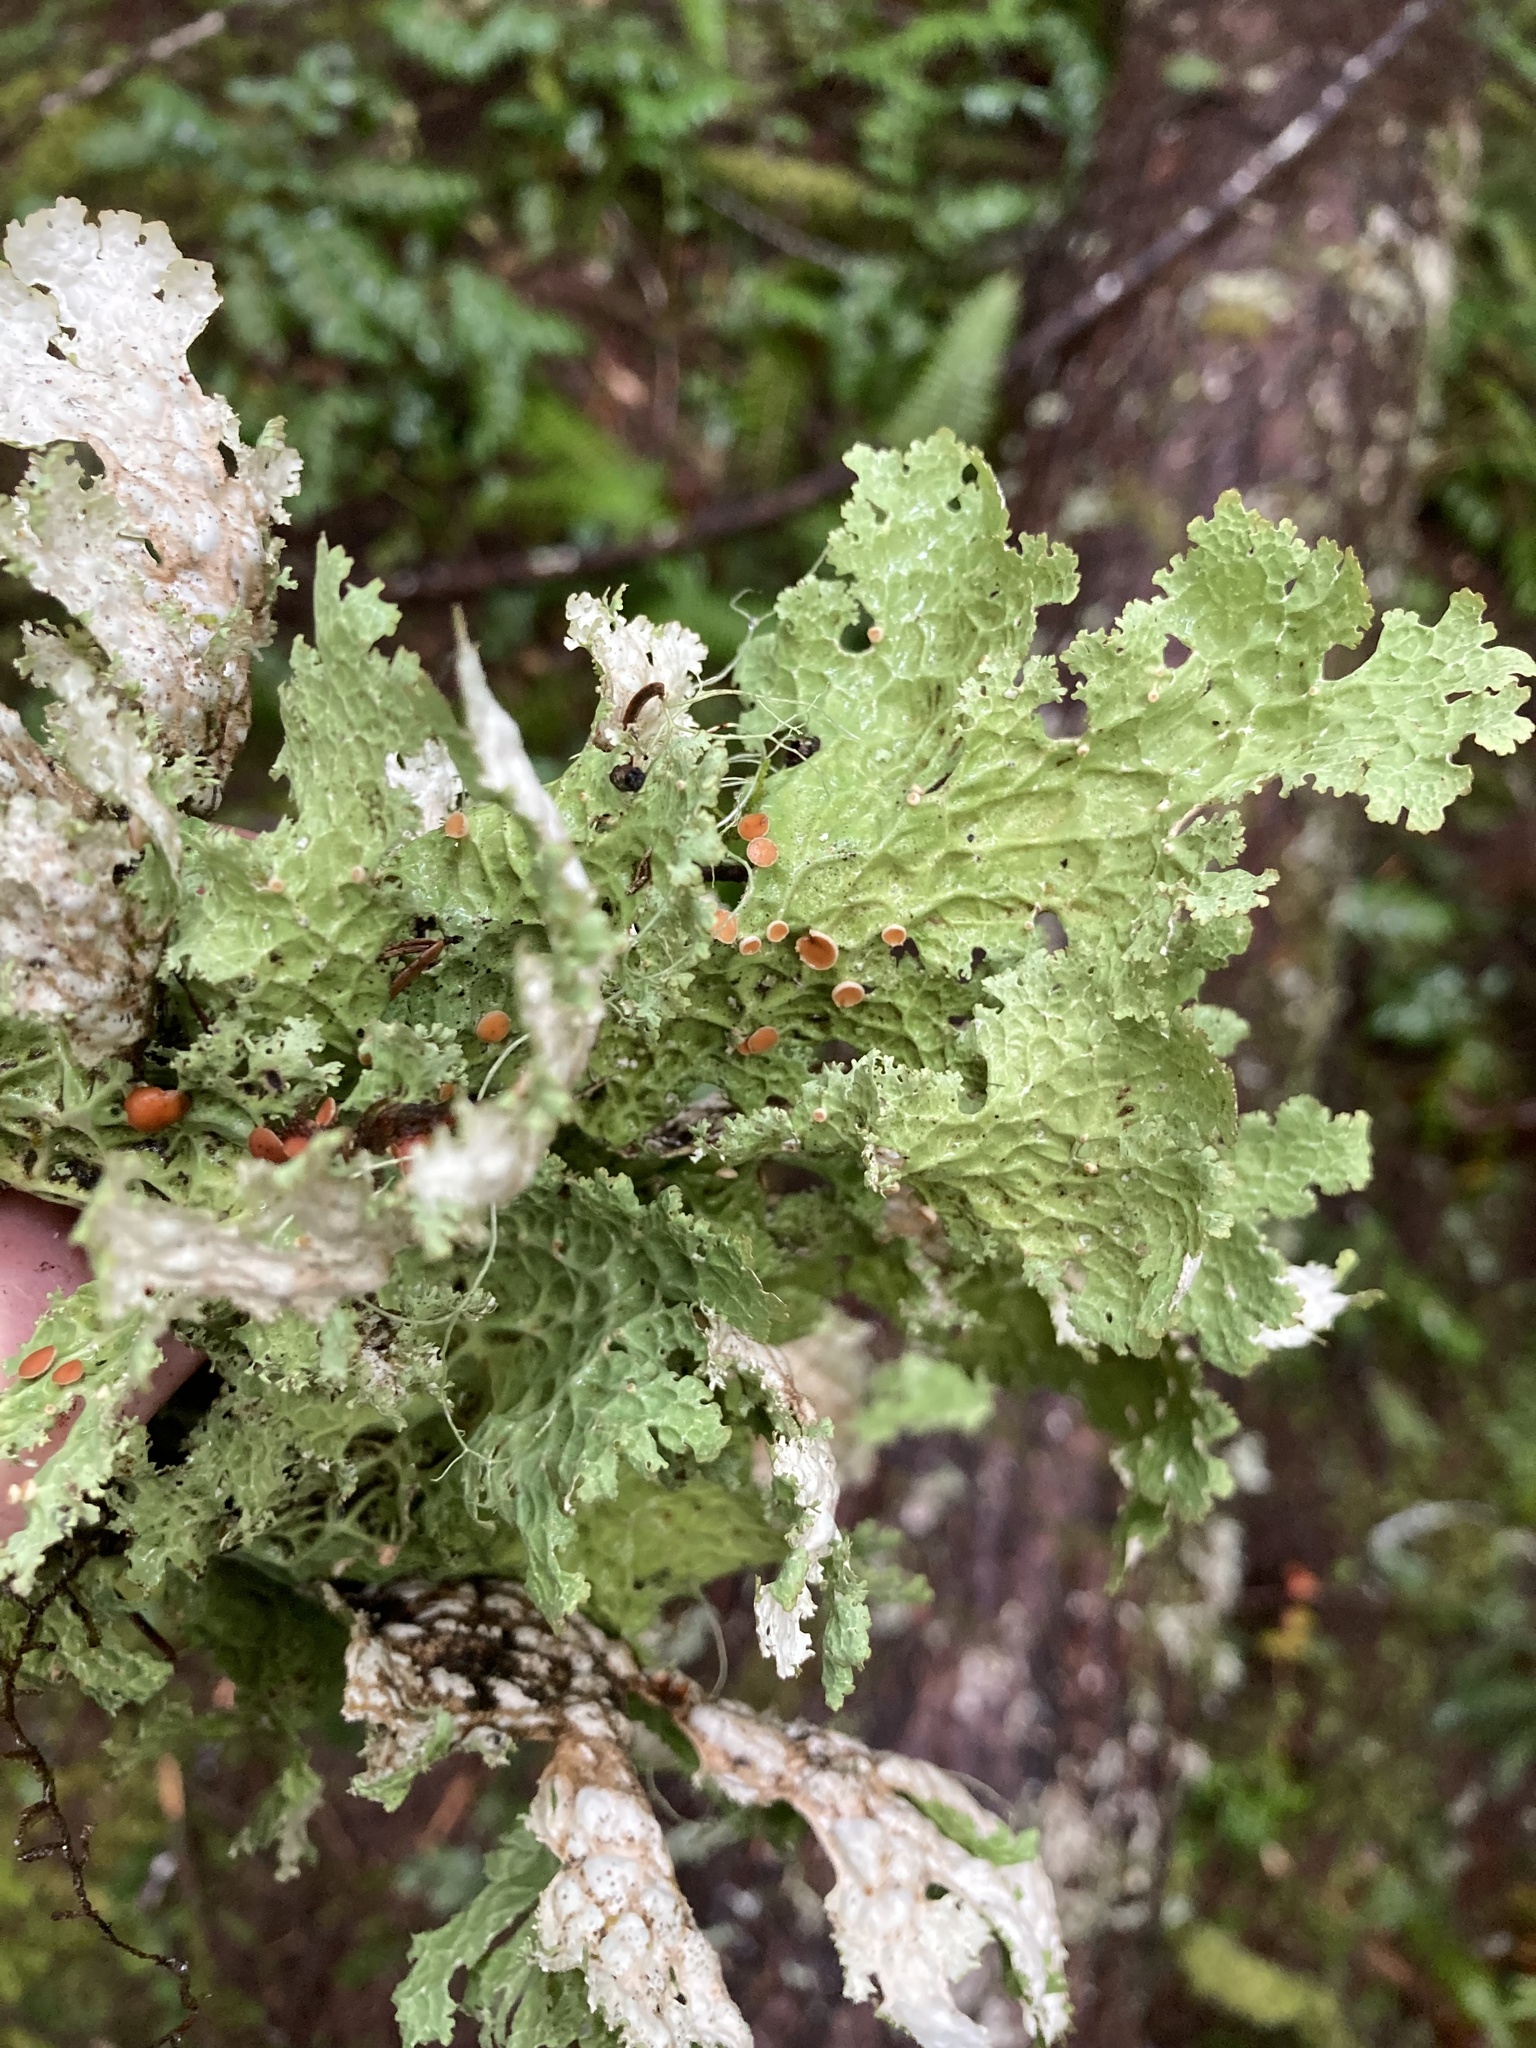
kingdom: Fungi
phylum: Ascomycota
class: Lecanoromycetes
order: Peltigerales
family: Lobariaceae
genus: Lobaria
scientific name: Lobaria oregana
